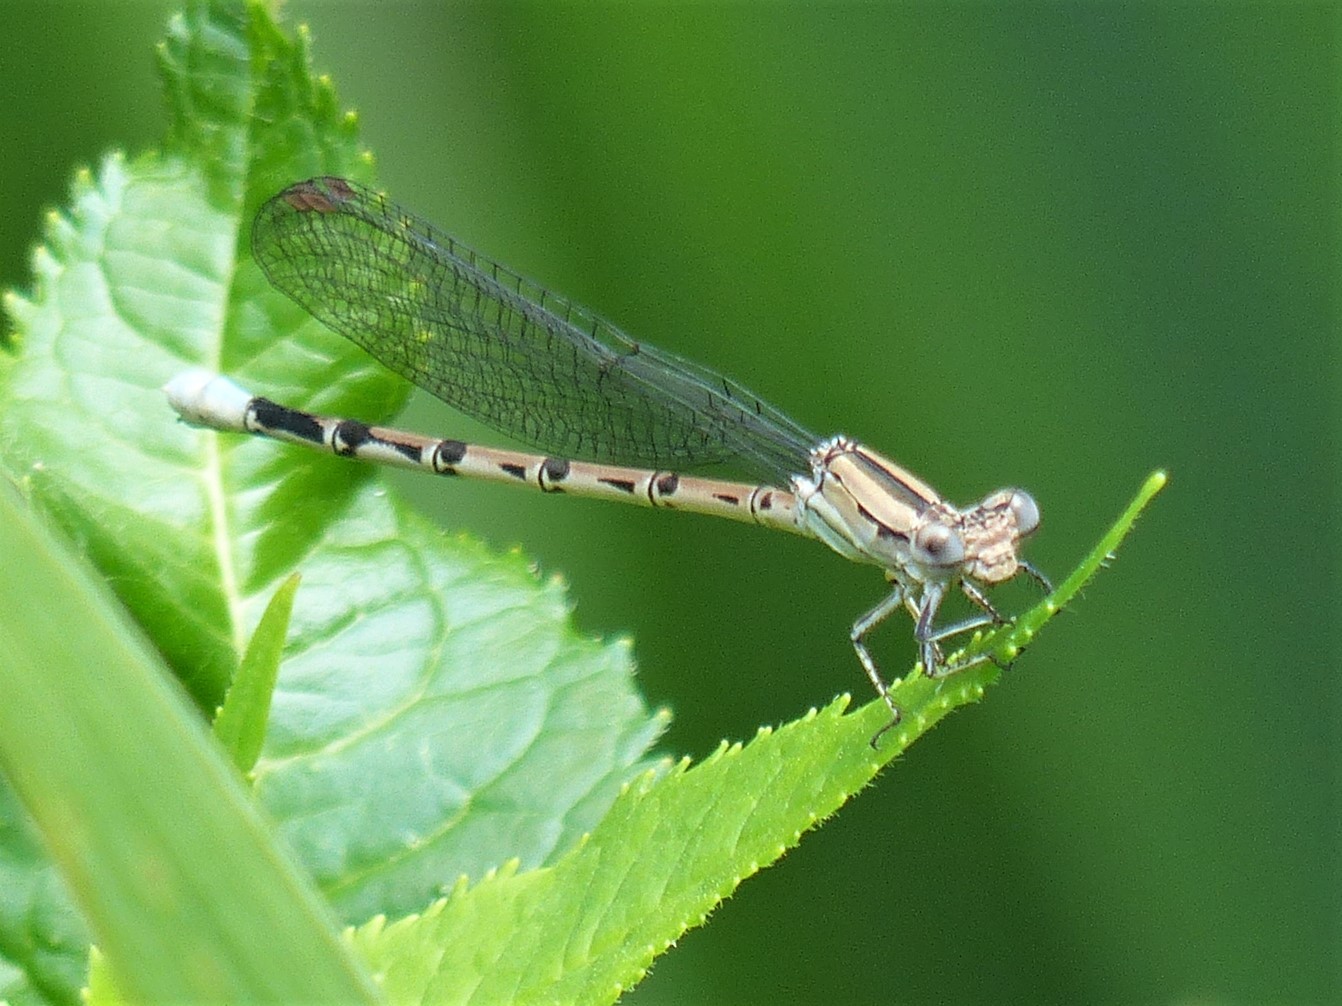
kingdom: Animalia
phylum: Arthropoda
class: Insecta
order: Odonata
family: Coenagrionidae
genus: Argia
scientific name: Argia funebris
